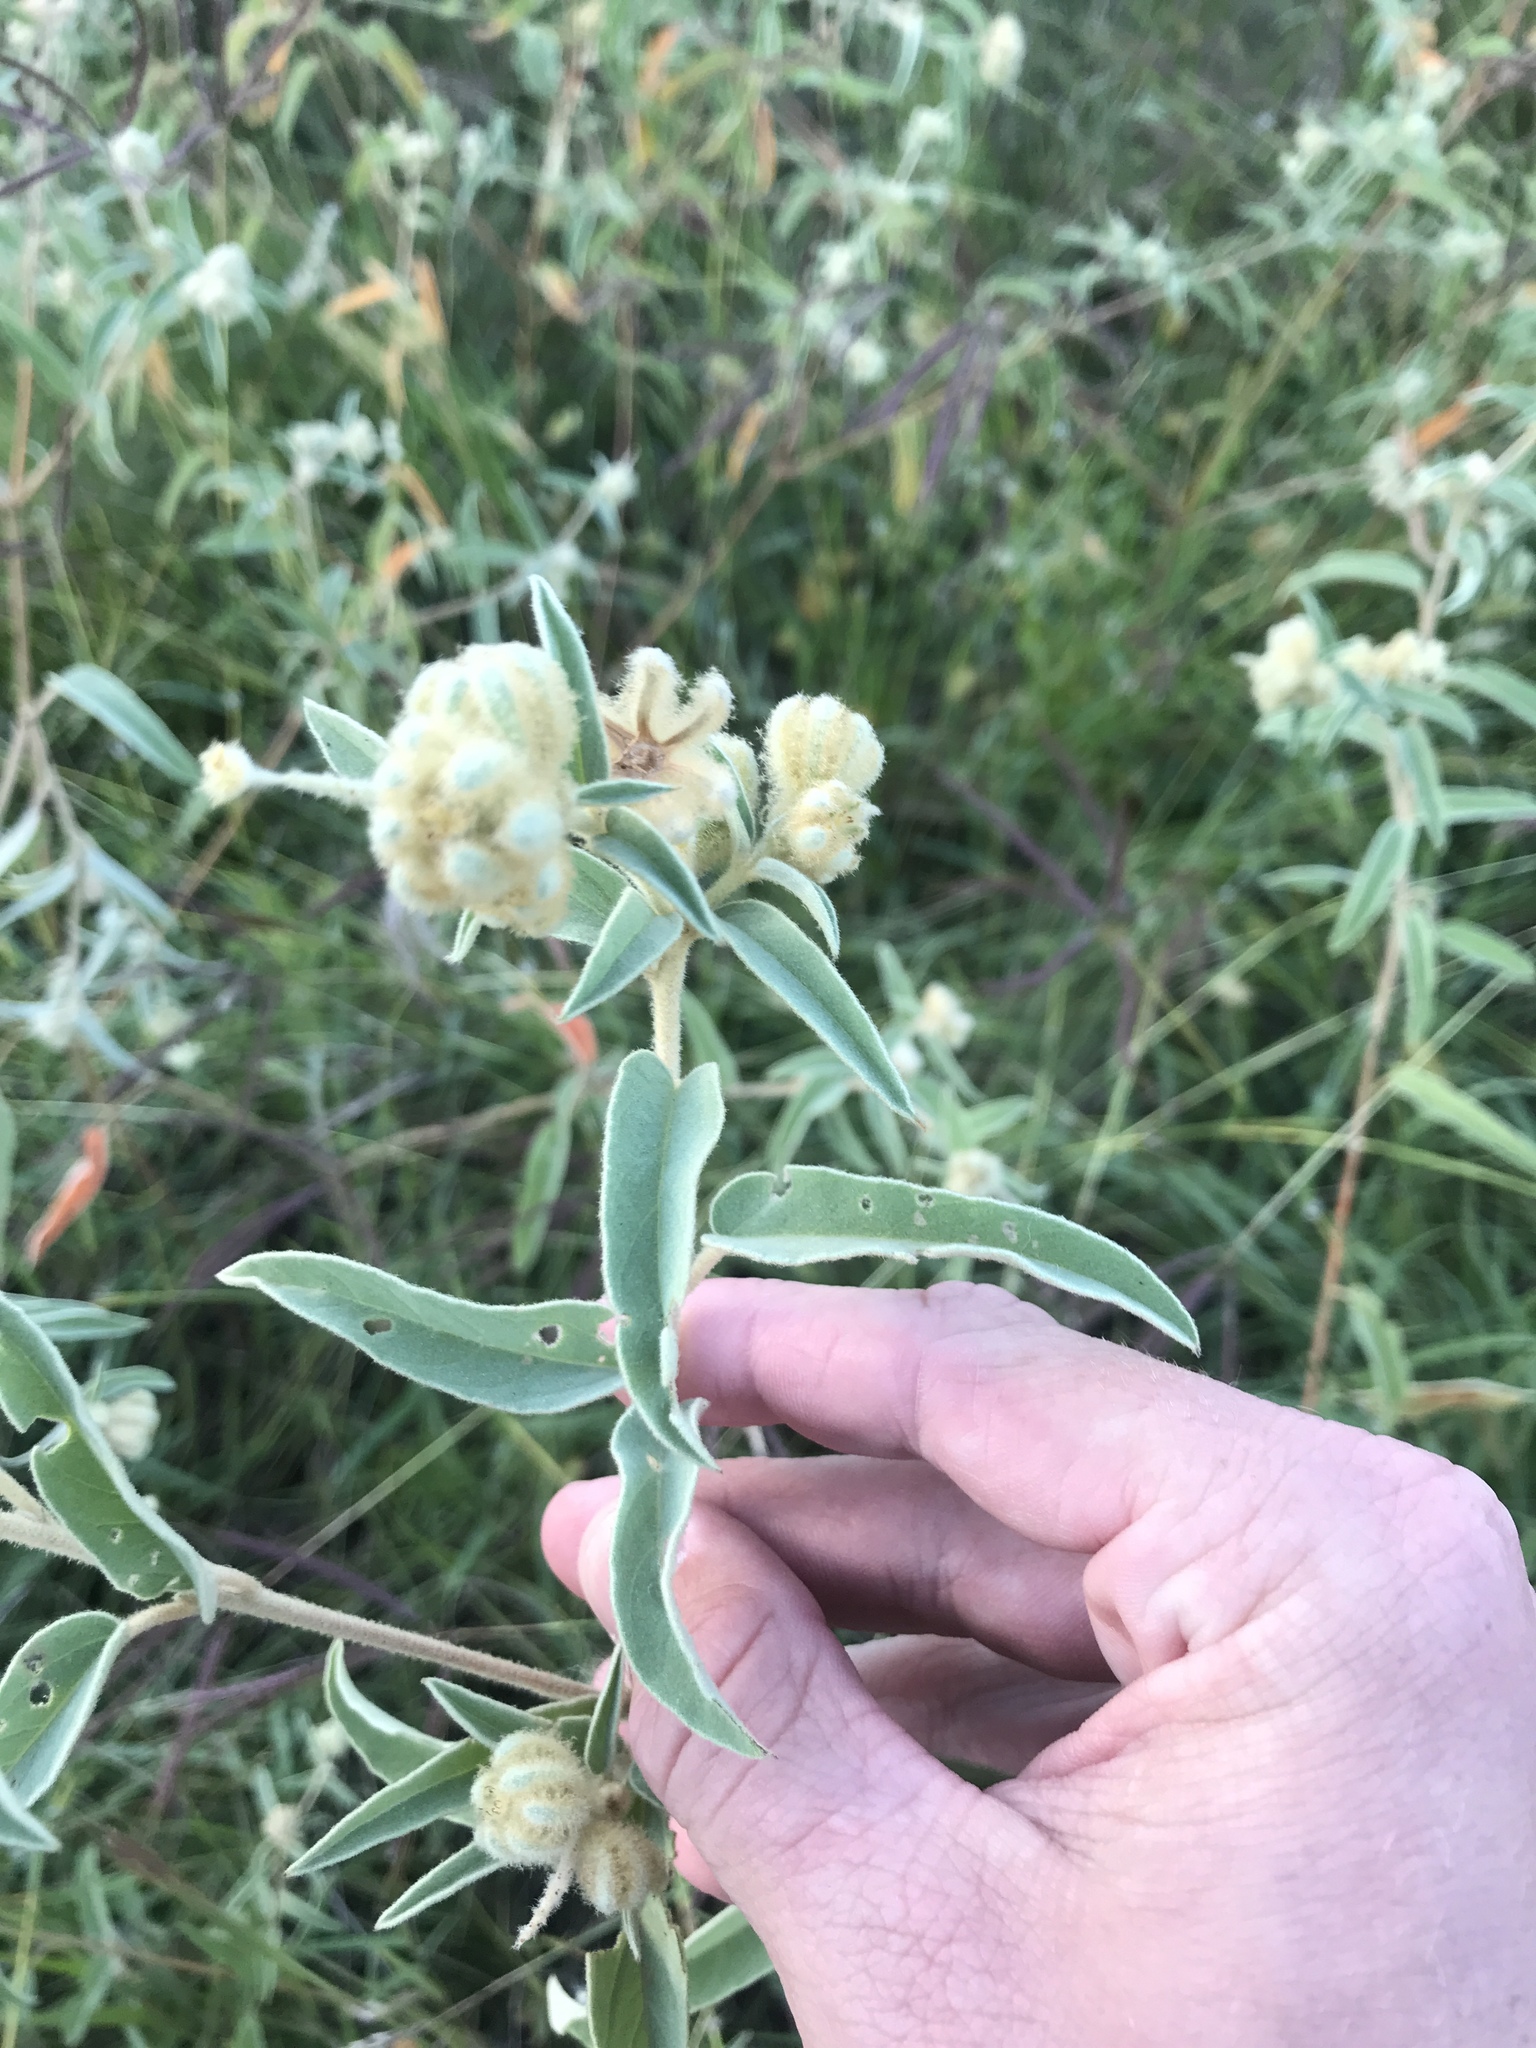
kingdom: Plantae
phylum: Tracheophyta
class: Magnoliopsida
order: Malpighiales
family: Euphorbiaceae
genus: Croton
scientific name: Croton lindheimeri
